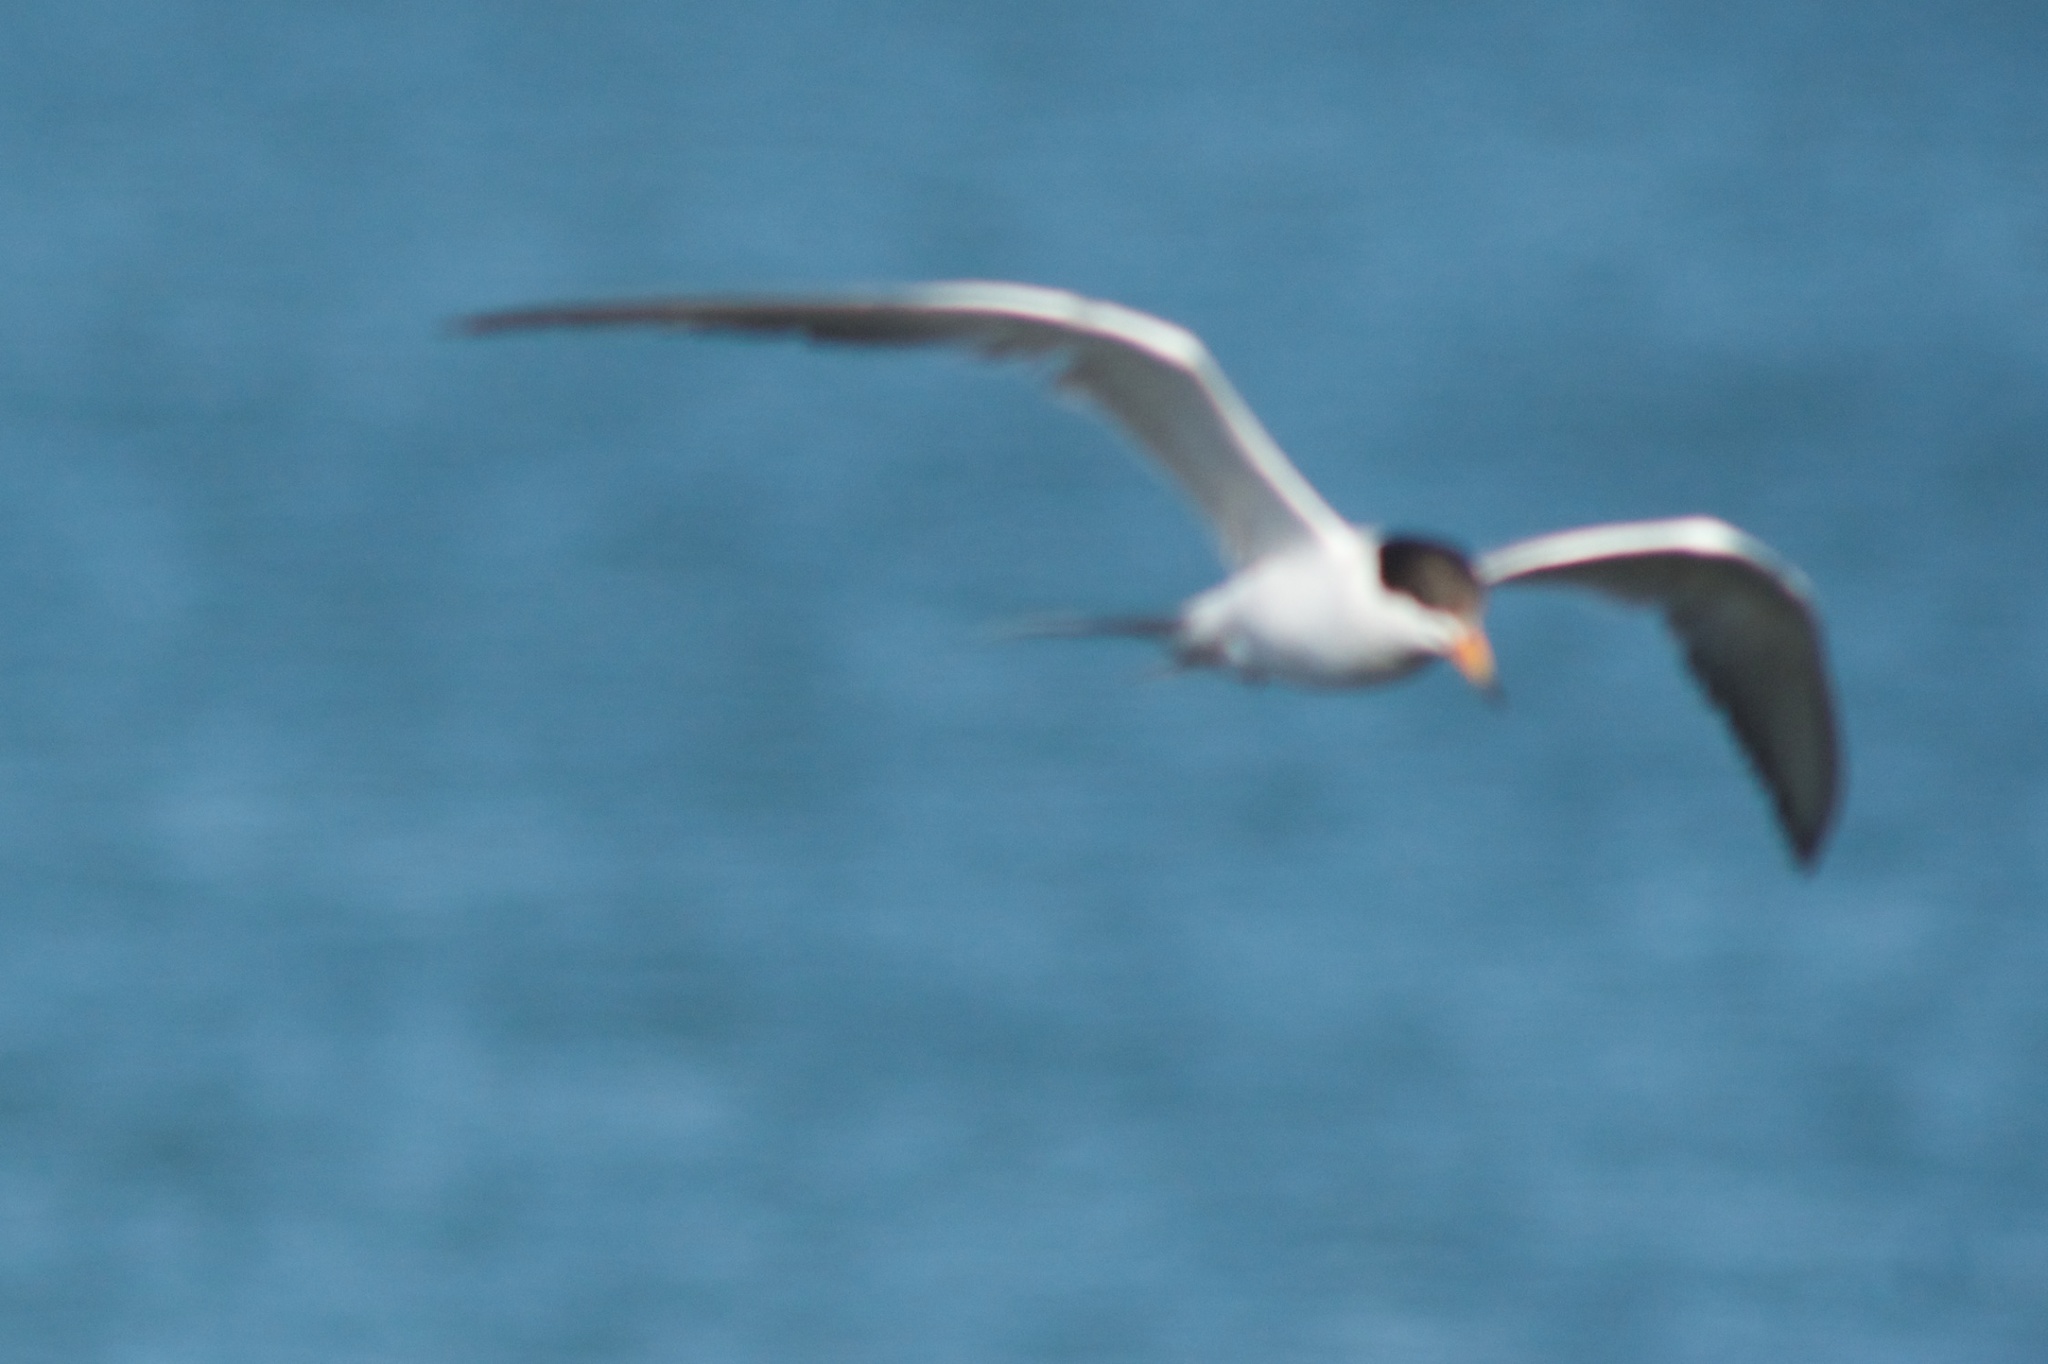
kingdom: Animalia
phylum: Chordata
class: Aves
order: Charadriiformes
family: Laridae
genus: Sterna
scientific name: Sterna forsteri
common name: Forster's tern
